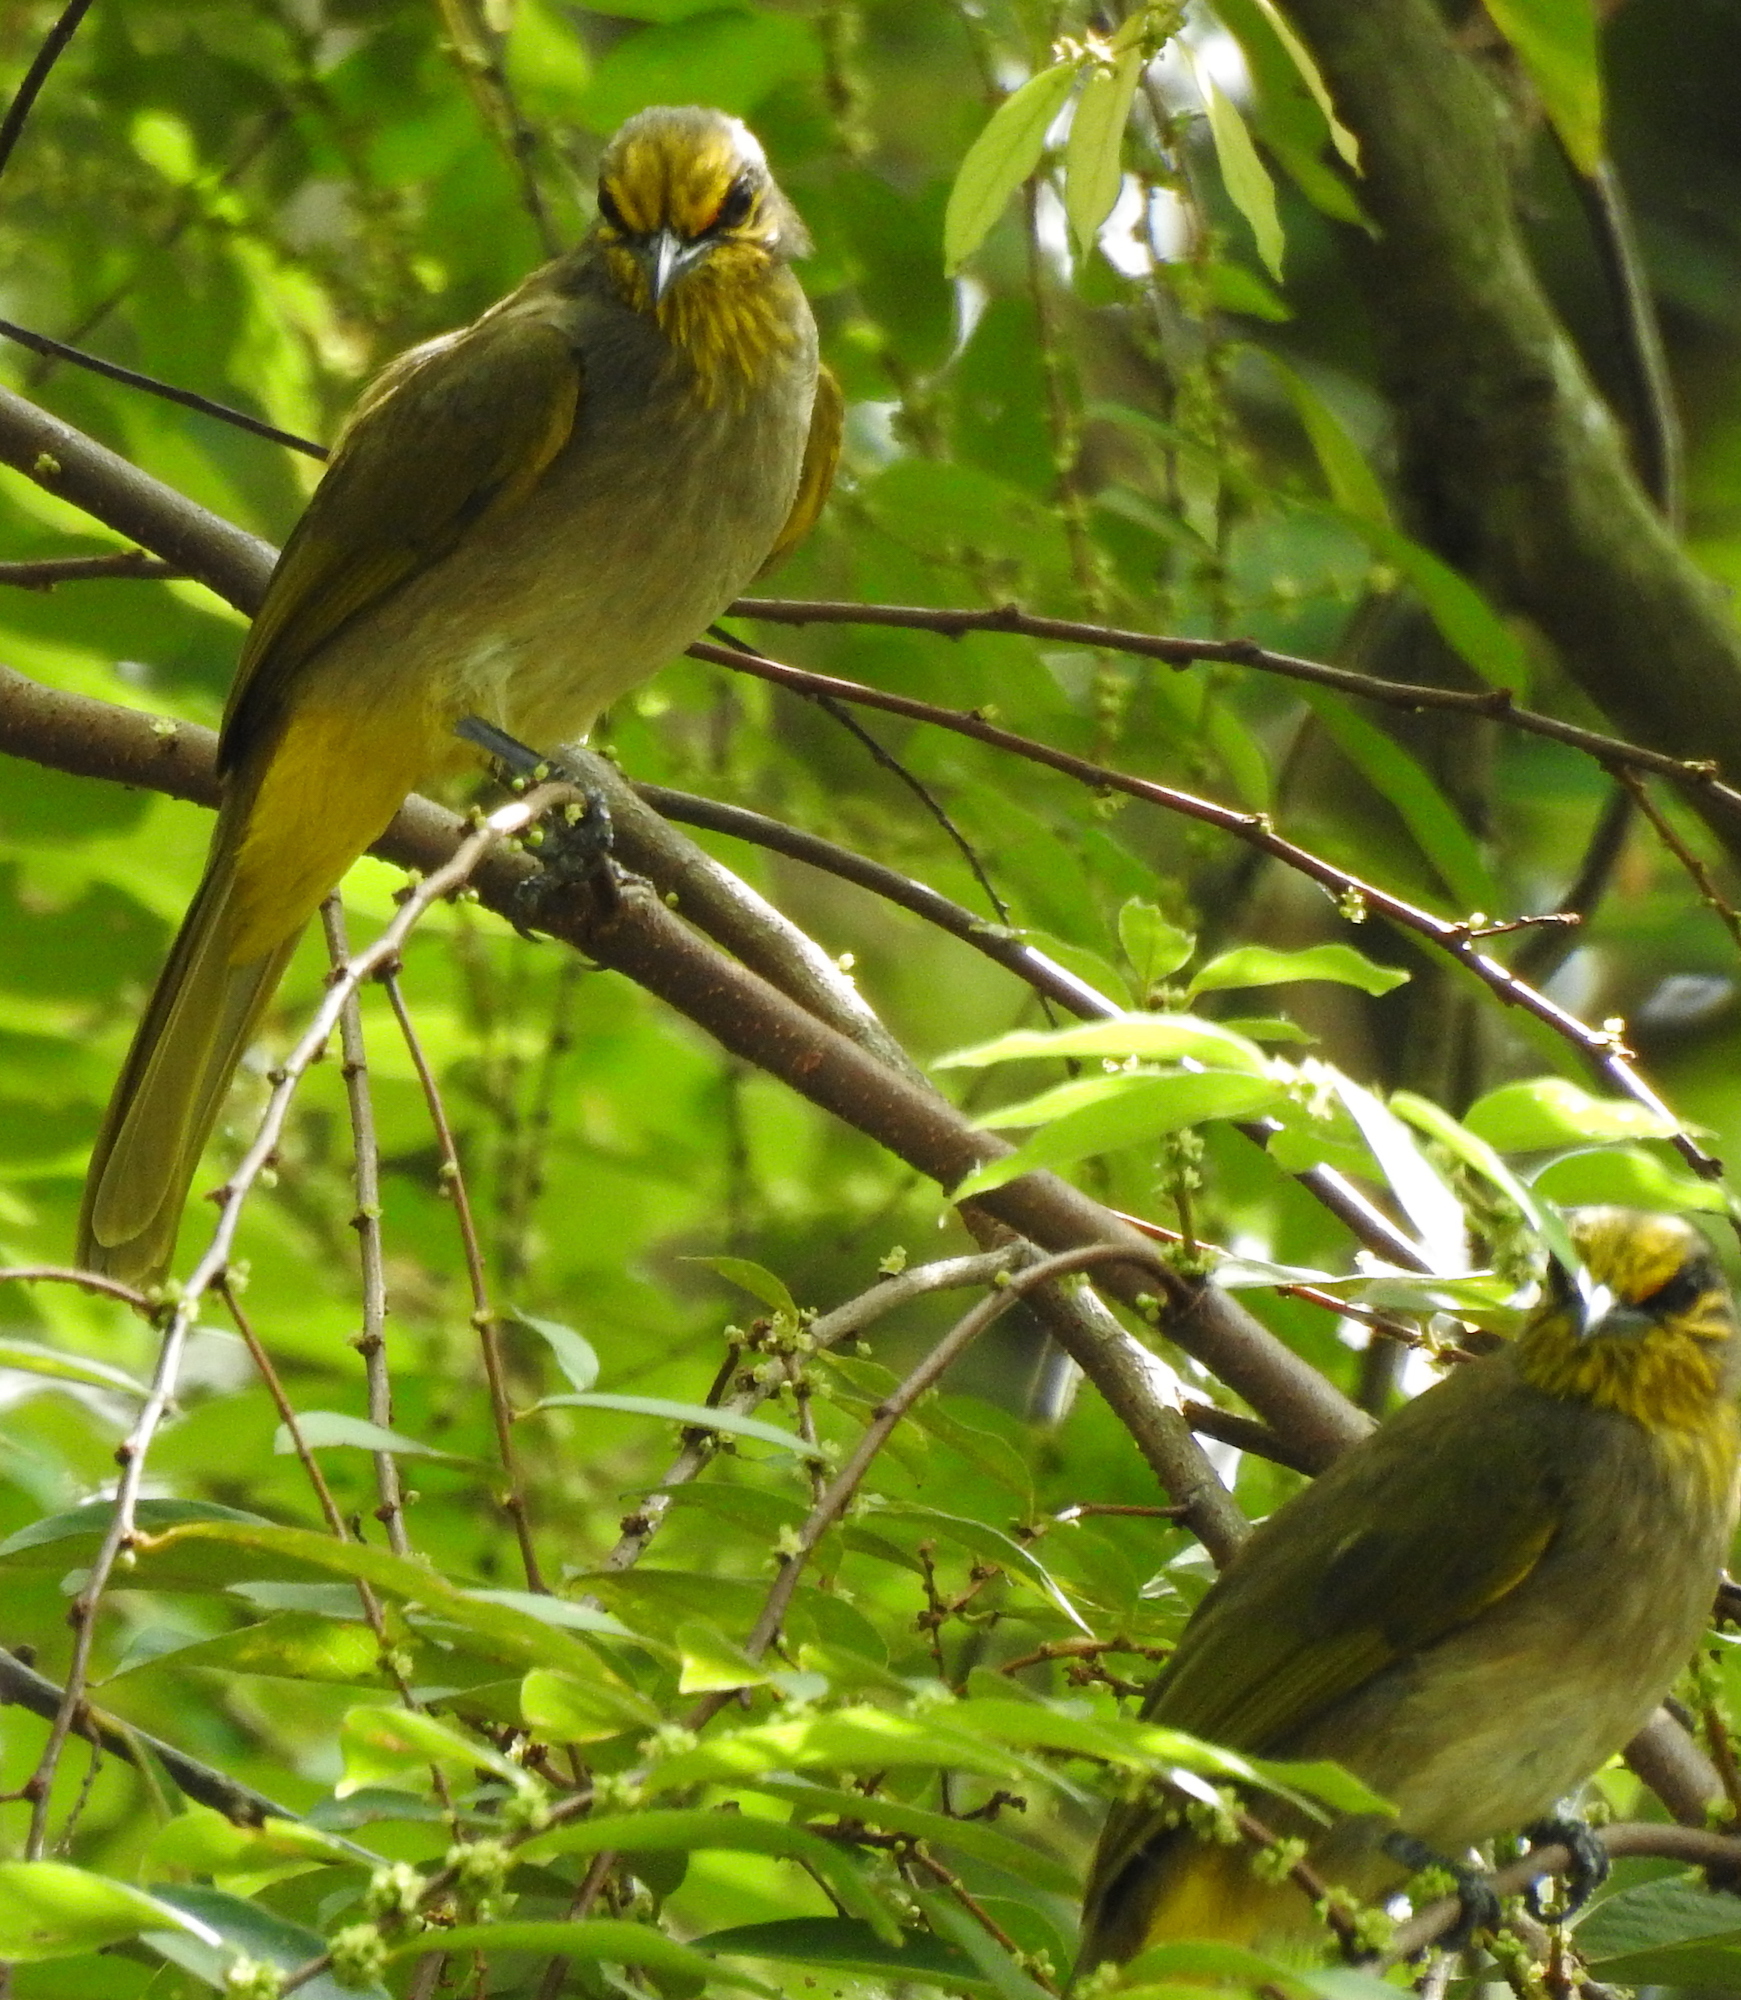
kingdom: Animalia
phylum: Chordata
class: Aves
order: Passeriformes
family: Pycnonotidae
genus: Pycnonotus
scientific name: Pycnonotus finlaysoni
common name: Stripe-throated bulbul
